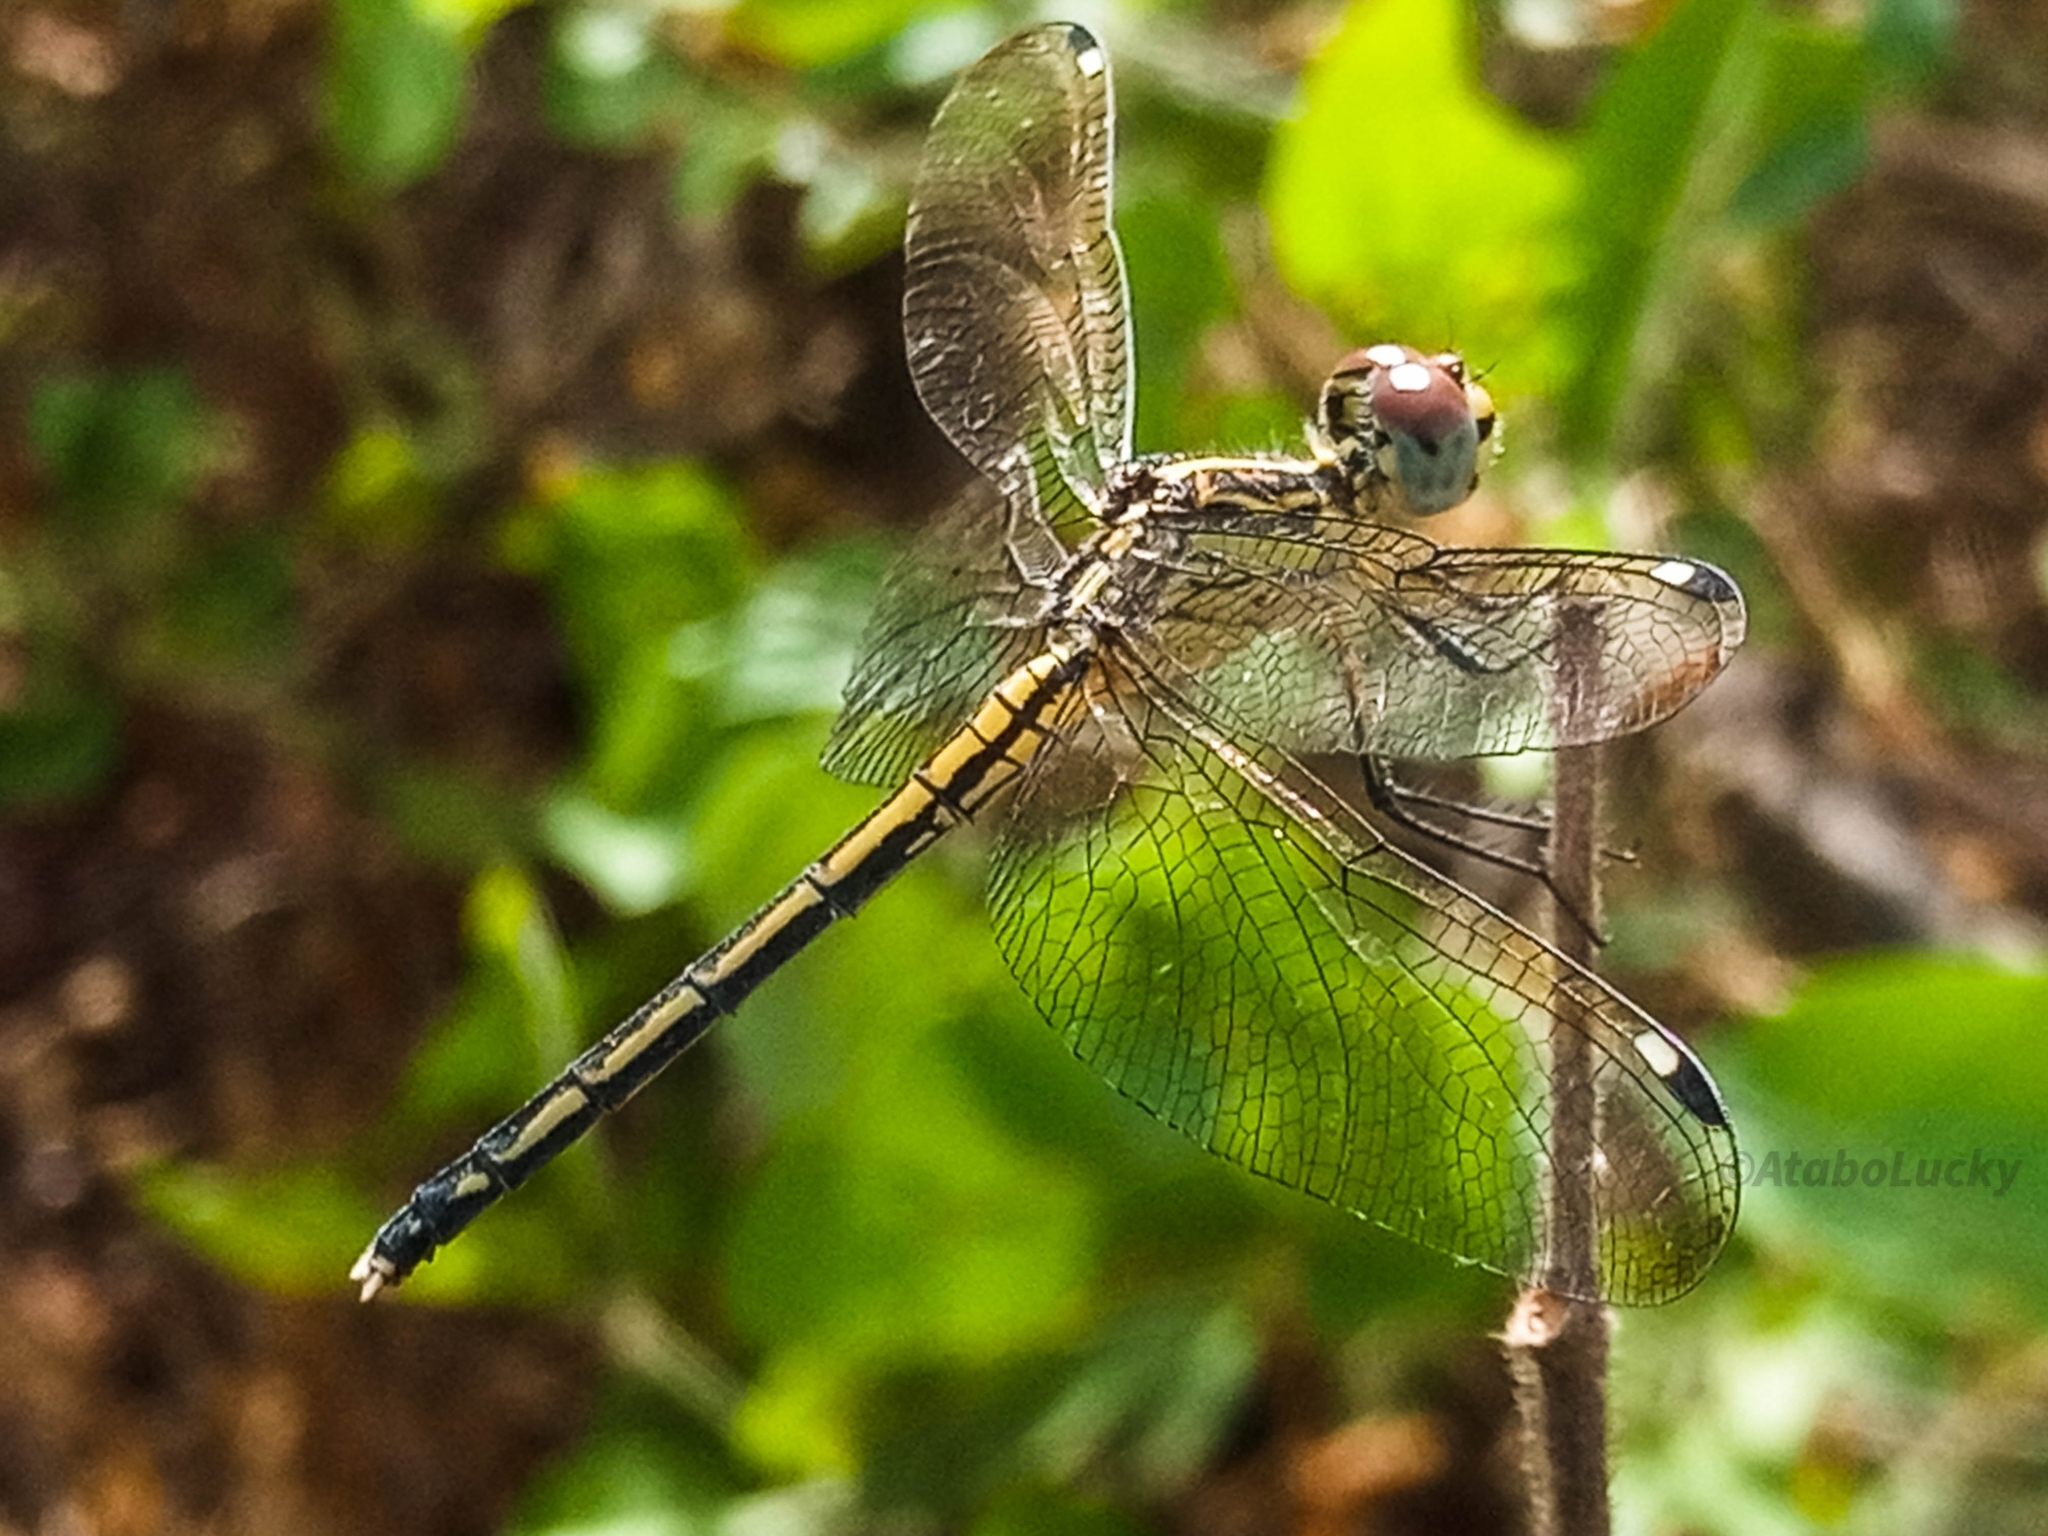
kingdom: Animalia
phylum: Arthropoda
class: Insecta
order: Odonata
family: Libellulidae
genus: Hemistigma
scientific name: Hemistigma albipunctum
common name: African pied-spot
